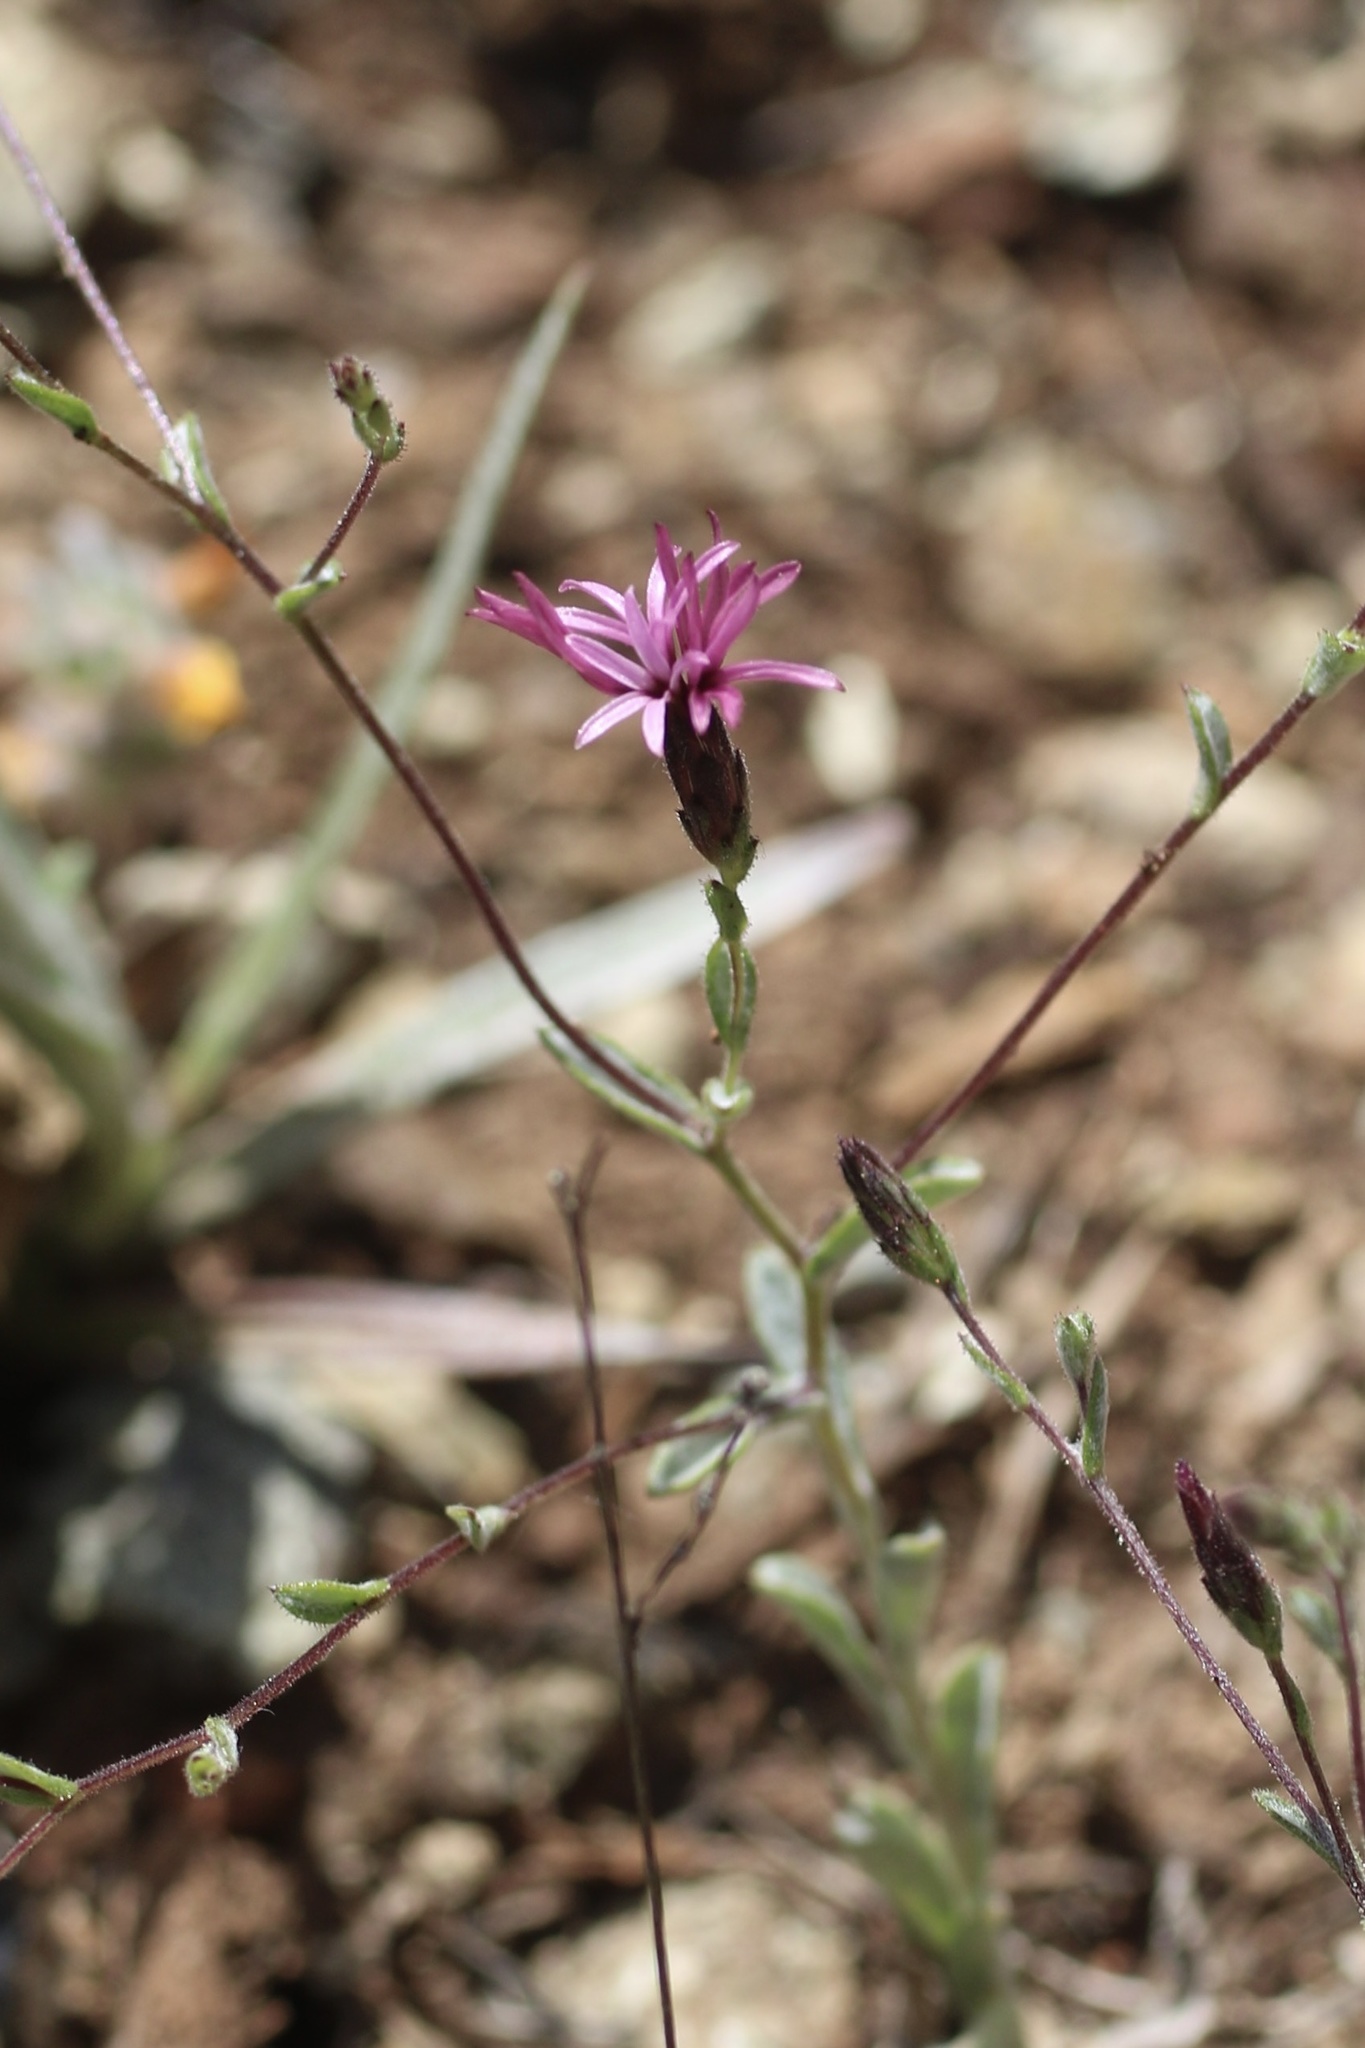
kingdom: Plantae
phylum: Tracheophyta
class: Magnoliopsida
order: Asterales
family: Asteraceae
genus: Lessingia
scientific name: Lessingia ramulosa
